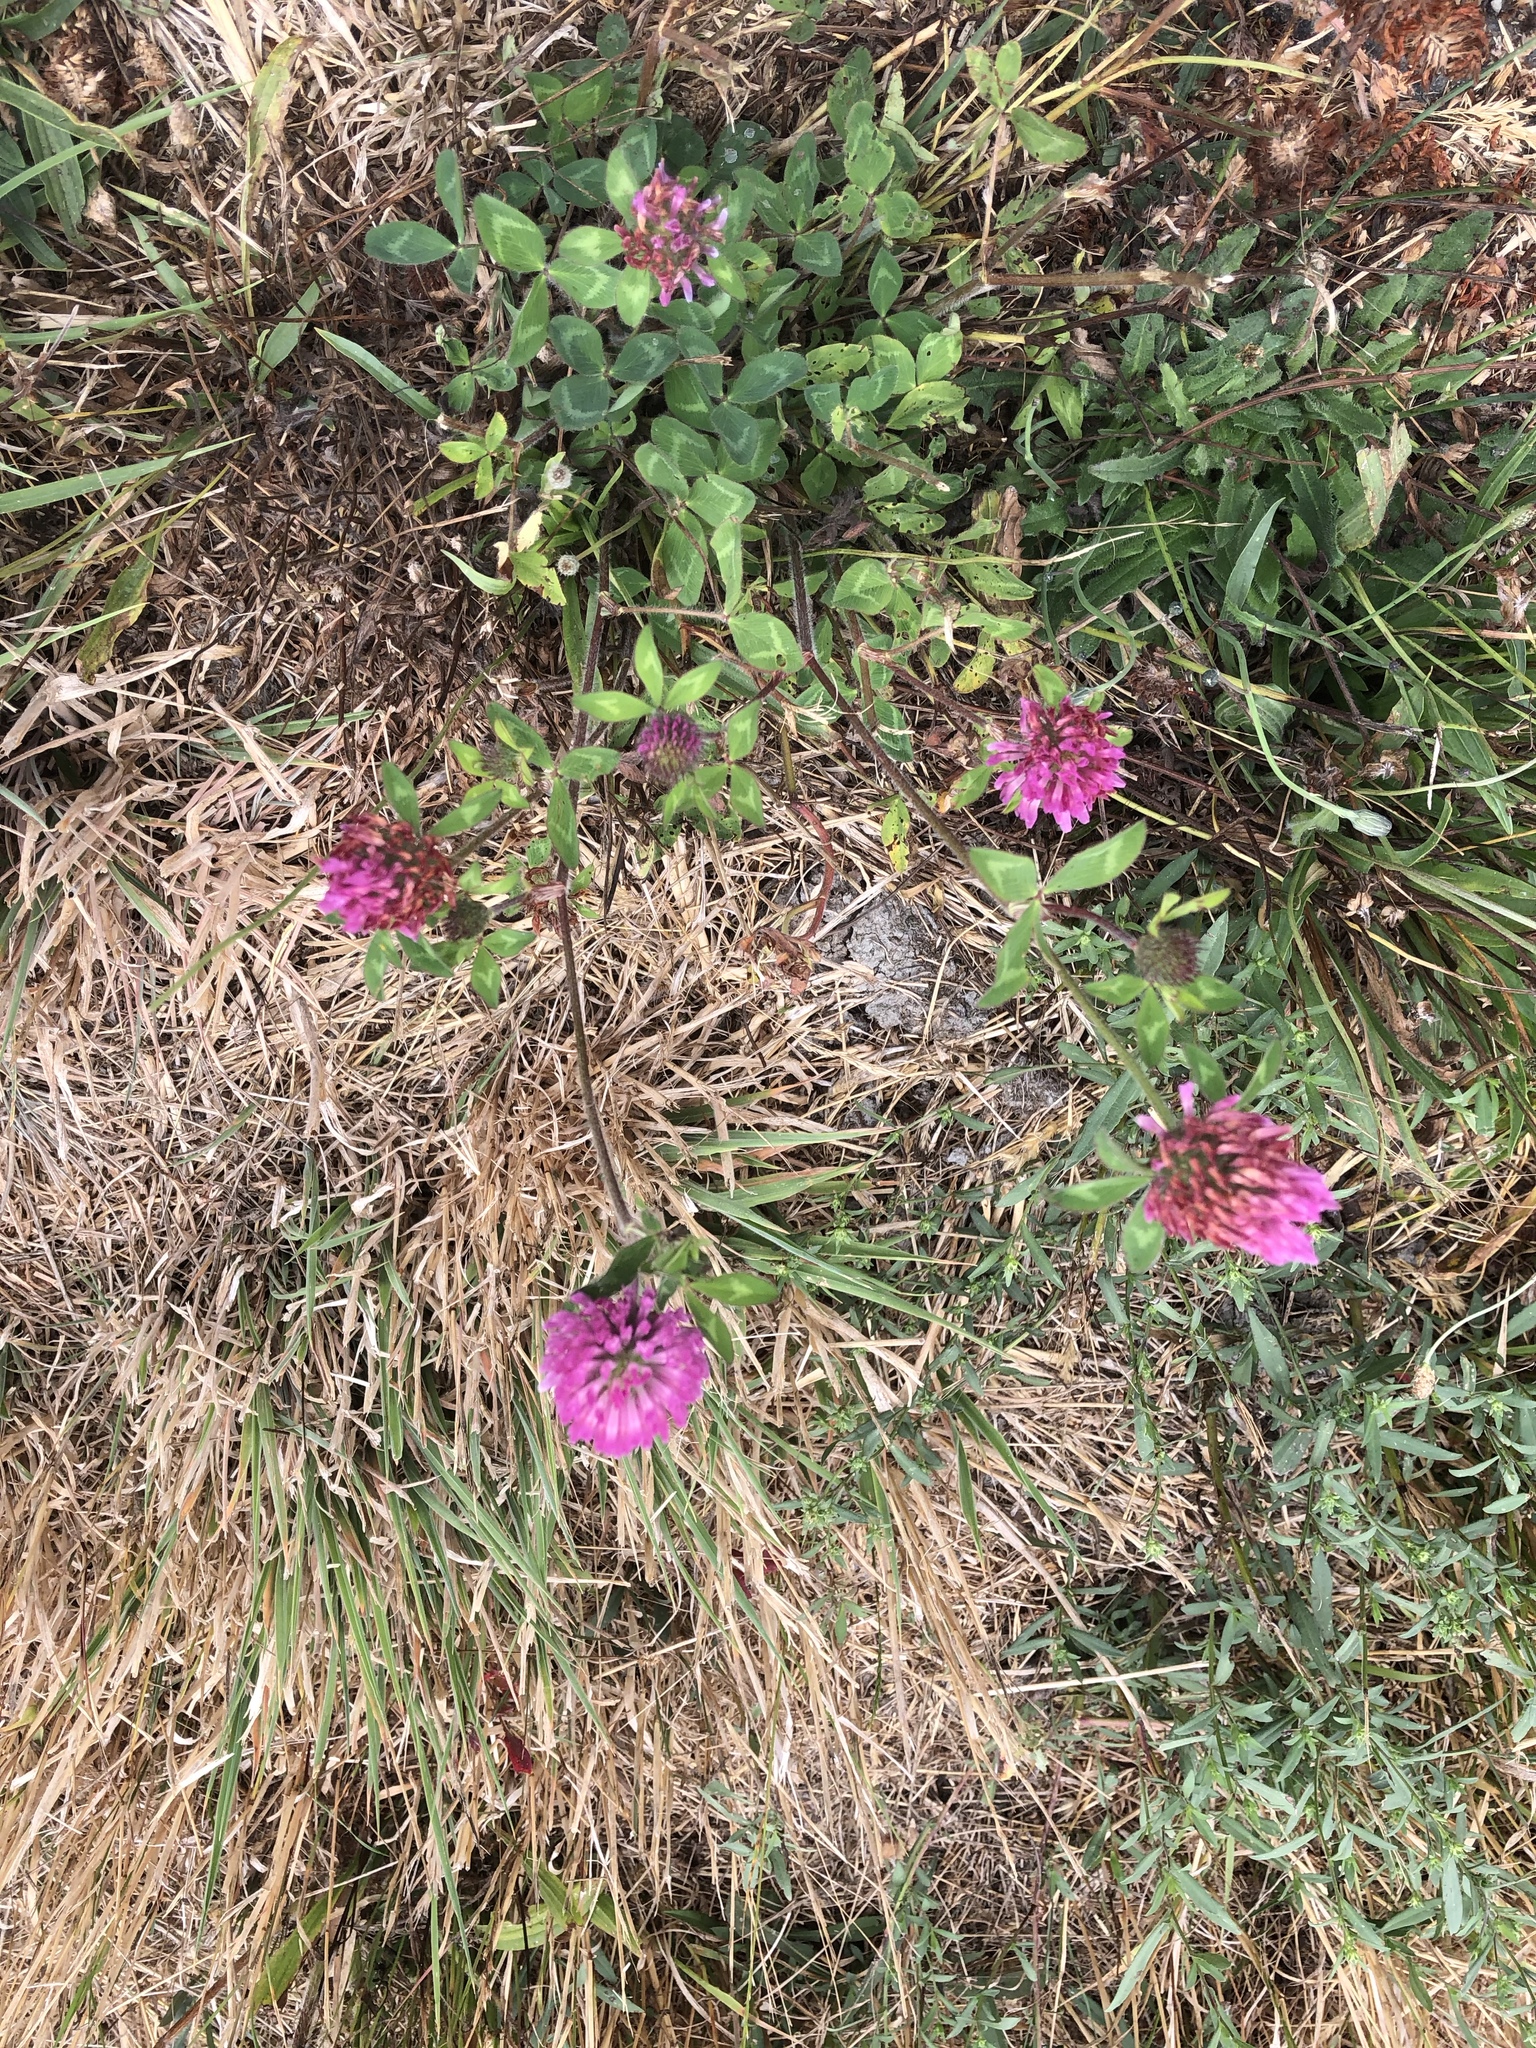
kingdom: Plantae
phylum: Tracheophyta
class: Magnoliopsida
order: Fabales
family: Fabaceae
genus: Trifolium
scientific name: Trifolium pratense
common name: Red clover
